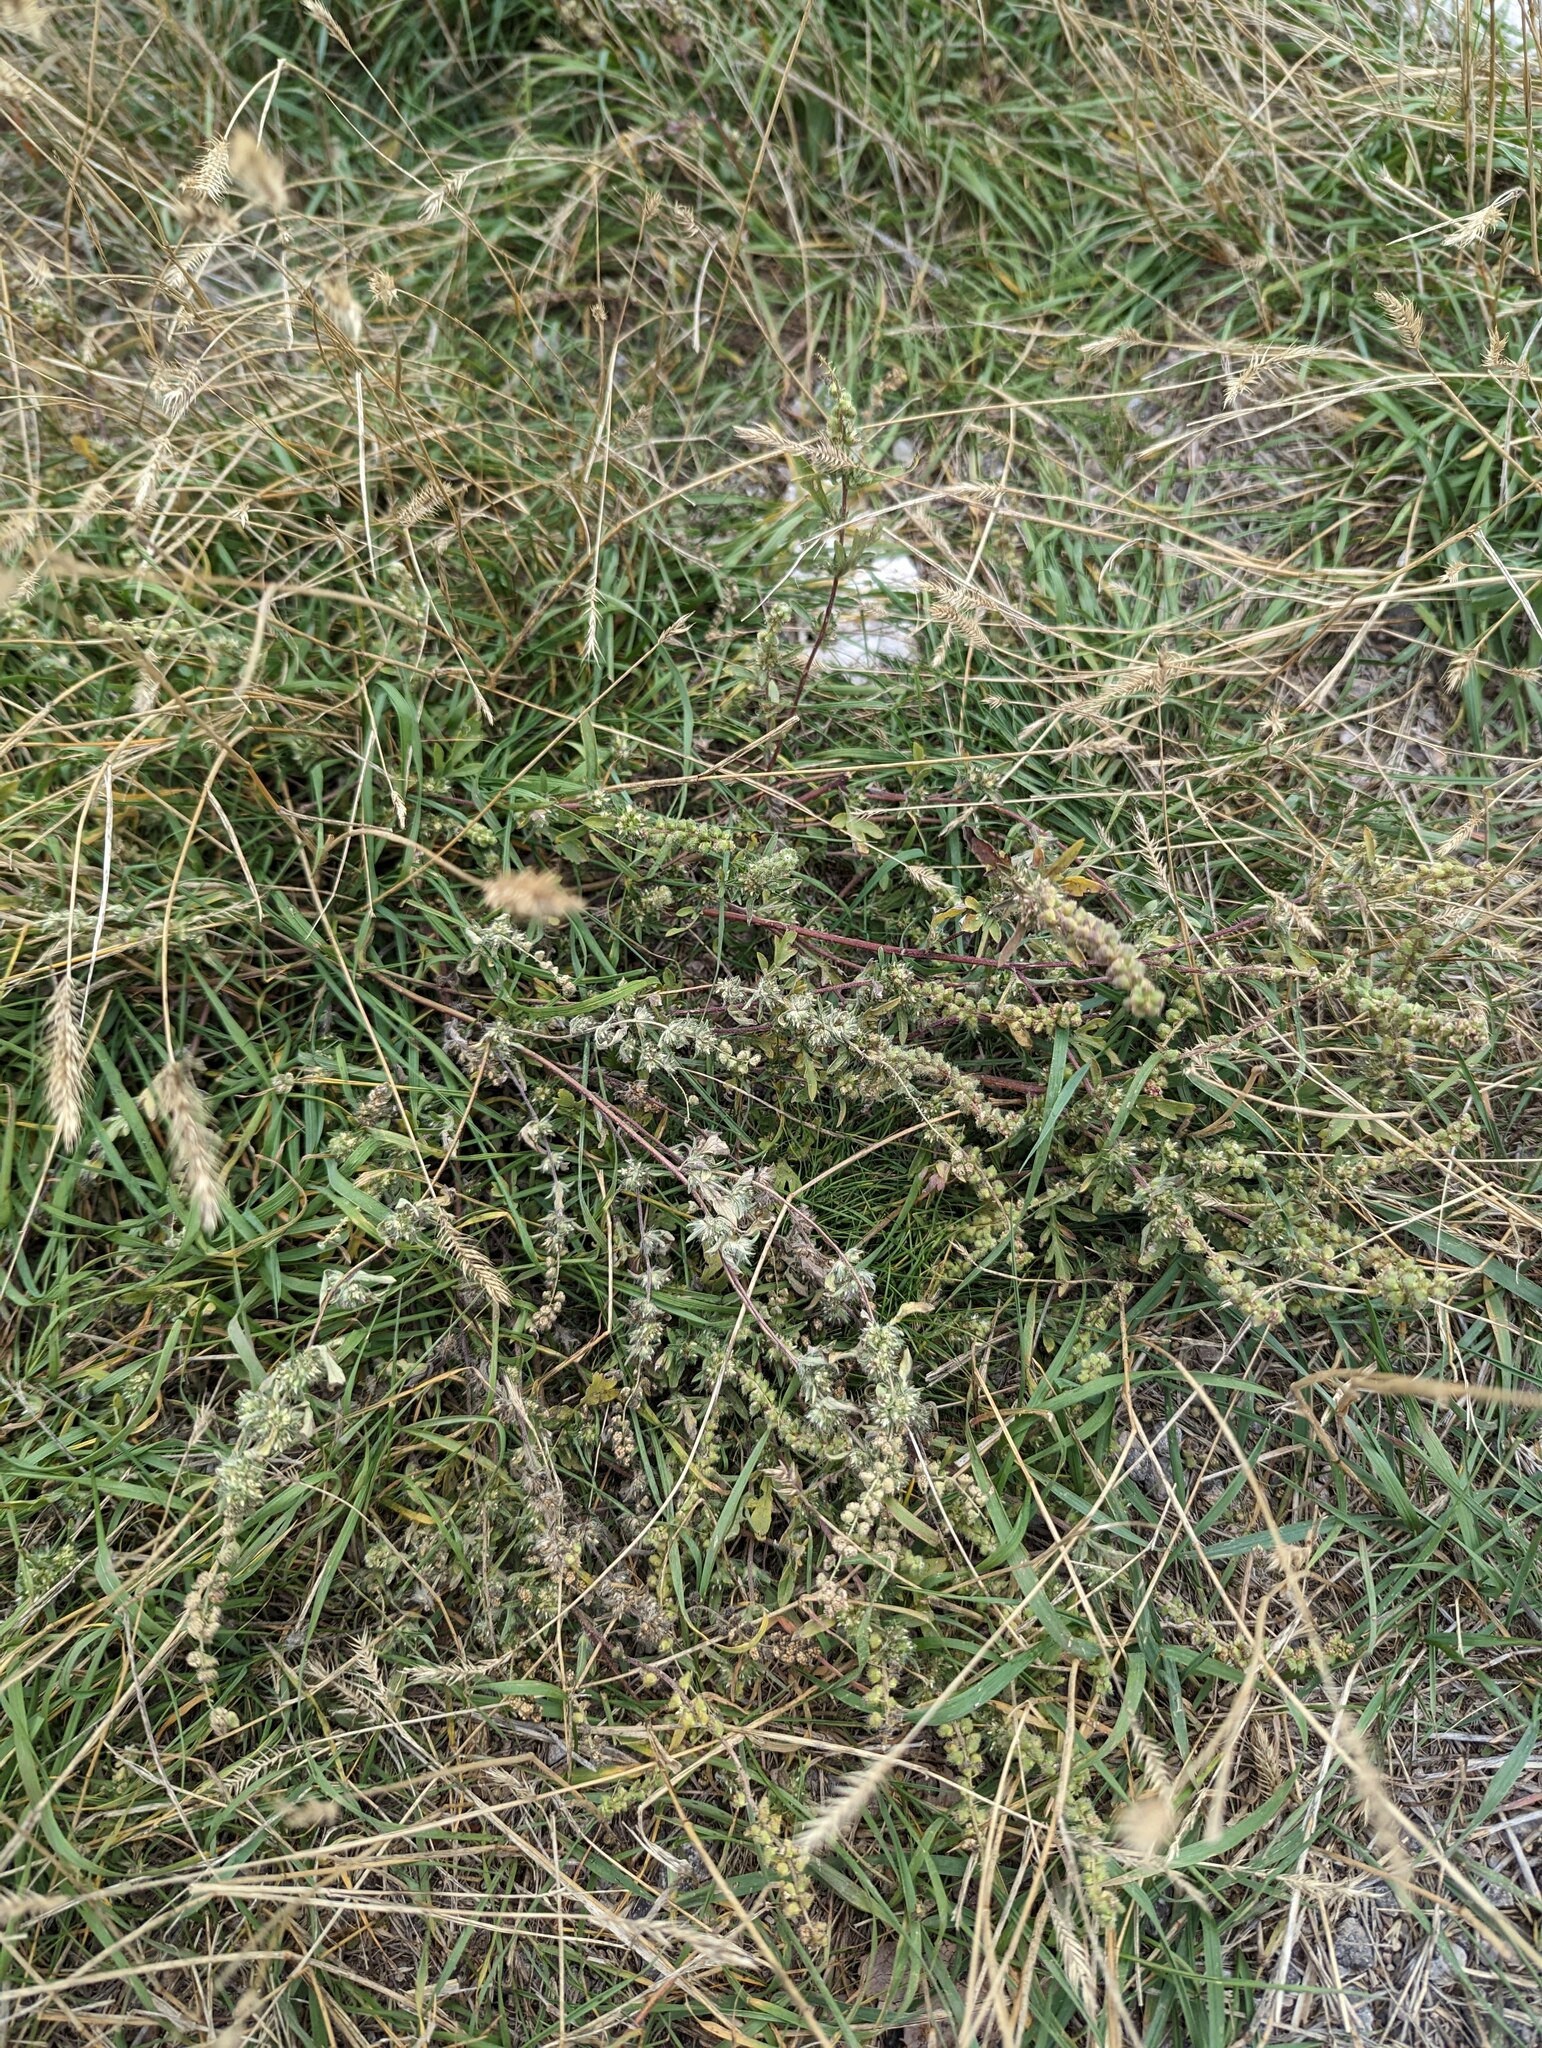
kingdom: Plantae
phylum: Tracheophyta
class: Magnoliopsida
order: Asterales
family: Asteraceae
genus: Ambrosia
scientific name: Ambrosia artemisiifolia
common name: Annual ragweed
